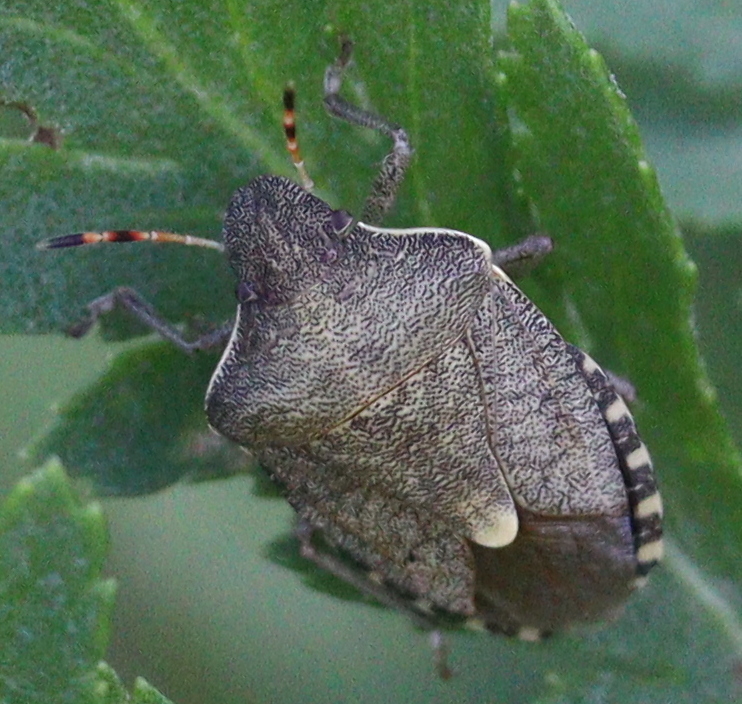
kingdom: Animalia
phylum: Arthropoda
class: Insecta
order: Hemiptera
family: Pentatomidae
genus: Holcostethus
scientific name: Holcostethus strictus
